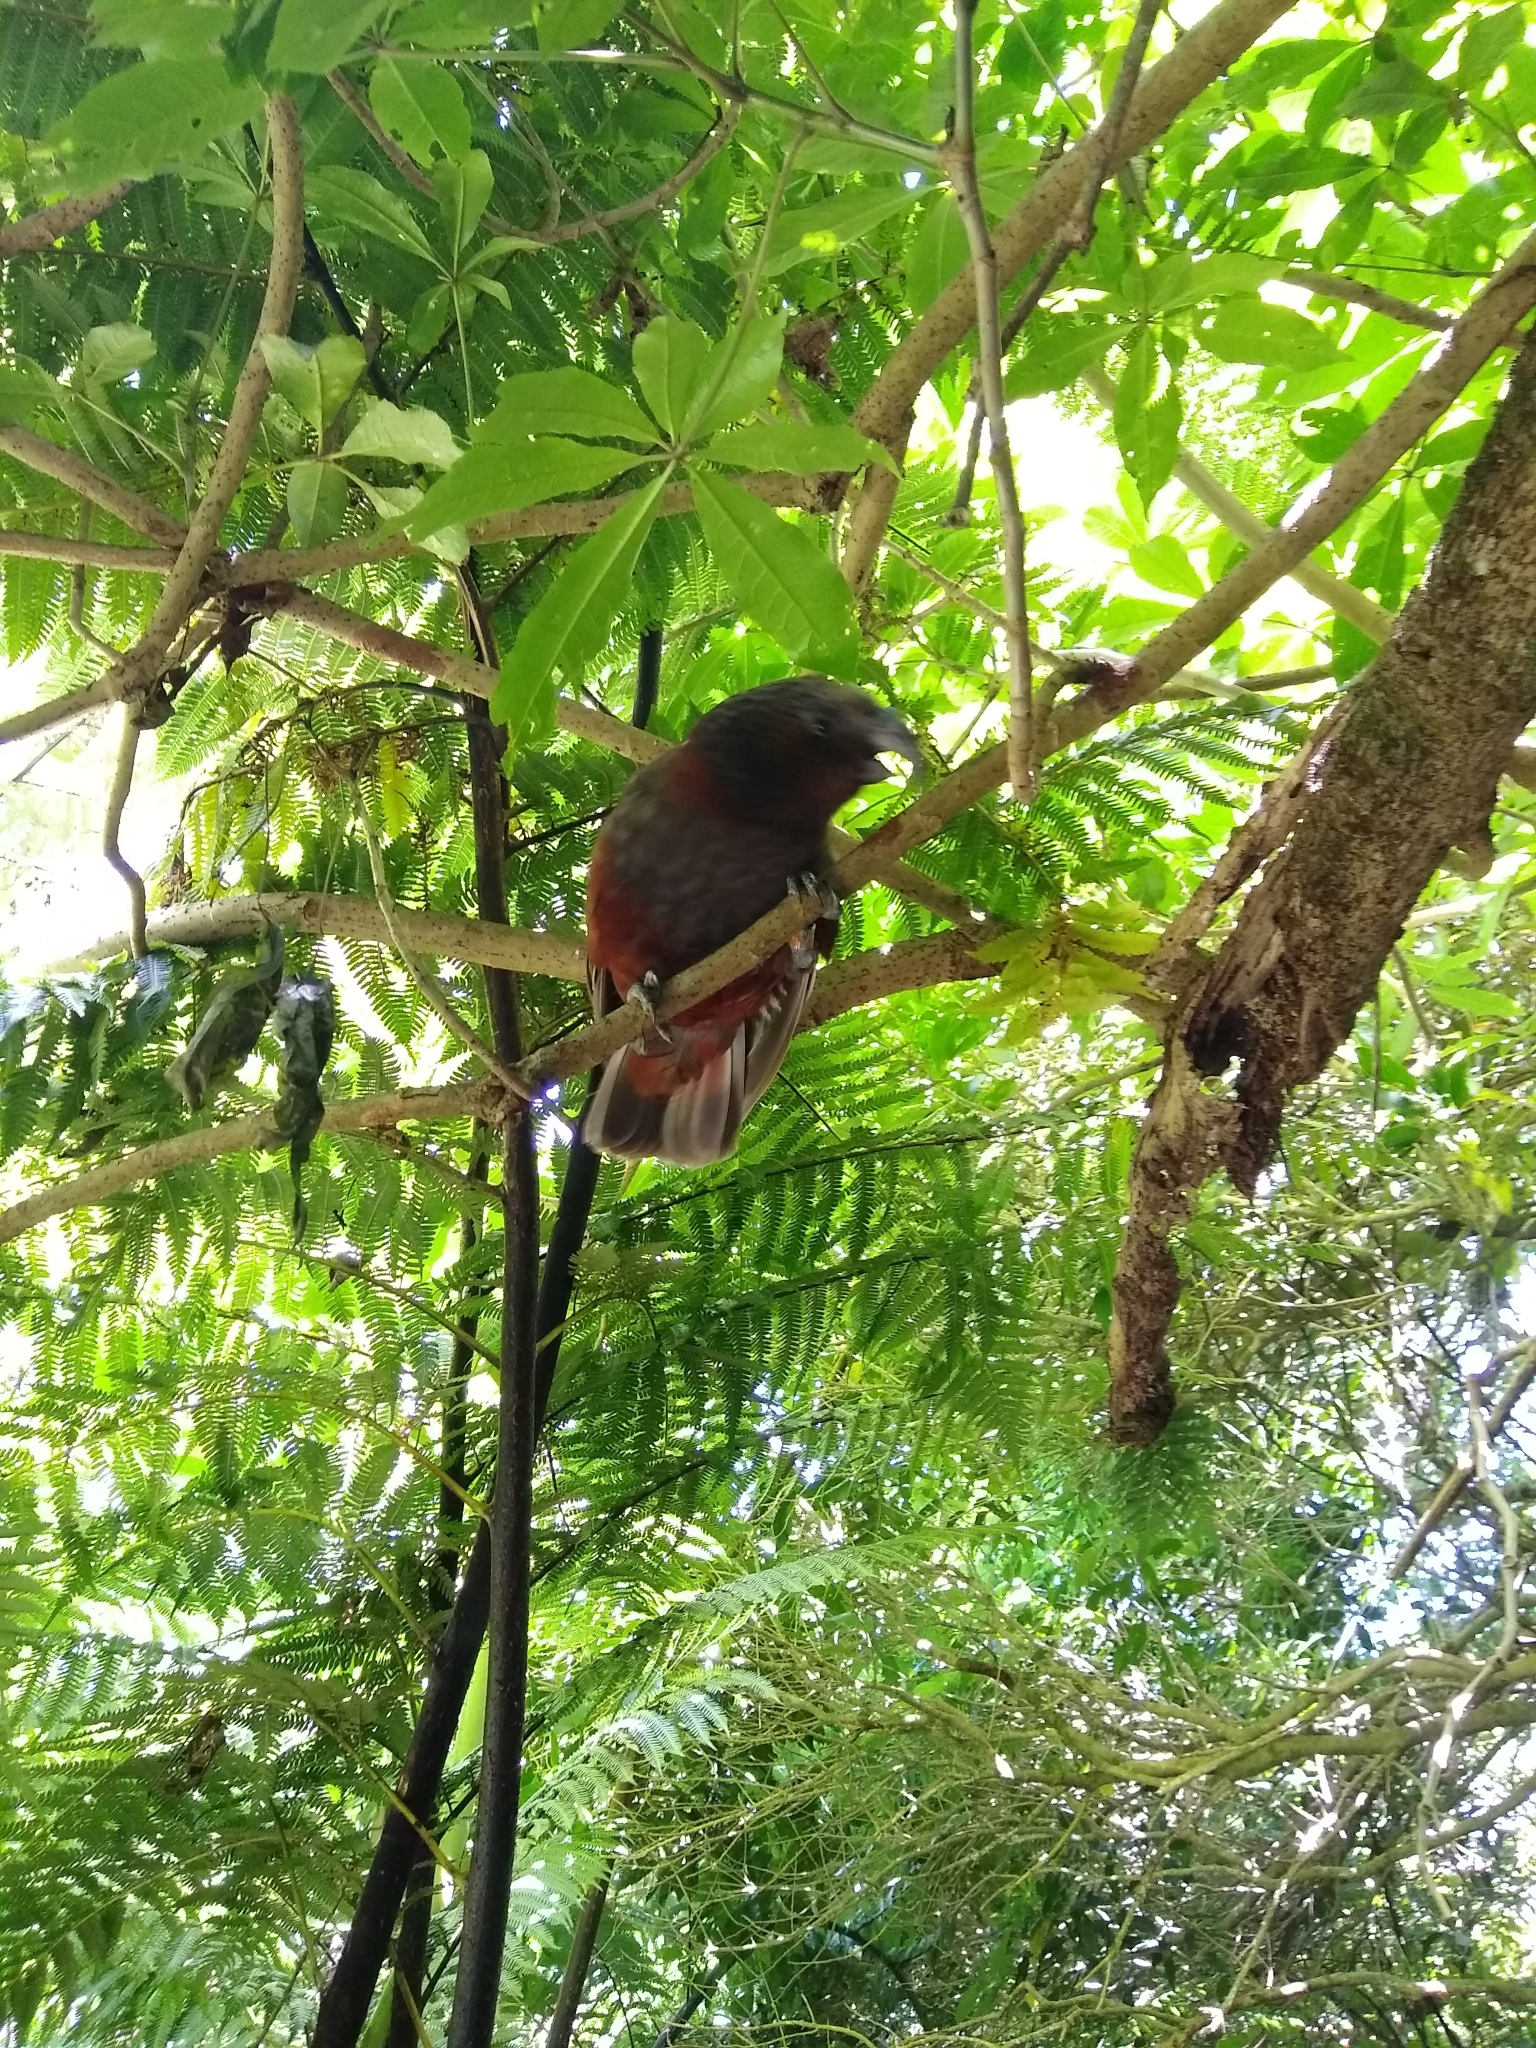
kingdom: Animalia
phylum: Chordata
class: Aves
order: Psittaciformes
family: Psittacidae
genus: Nestor
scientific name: Nestor meridionalis
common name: New zealand kaka
